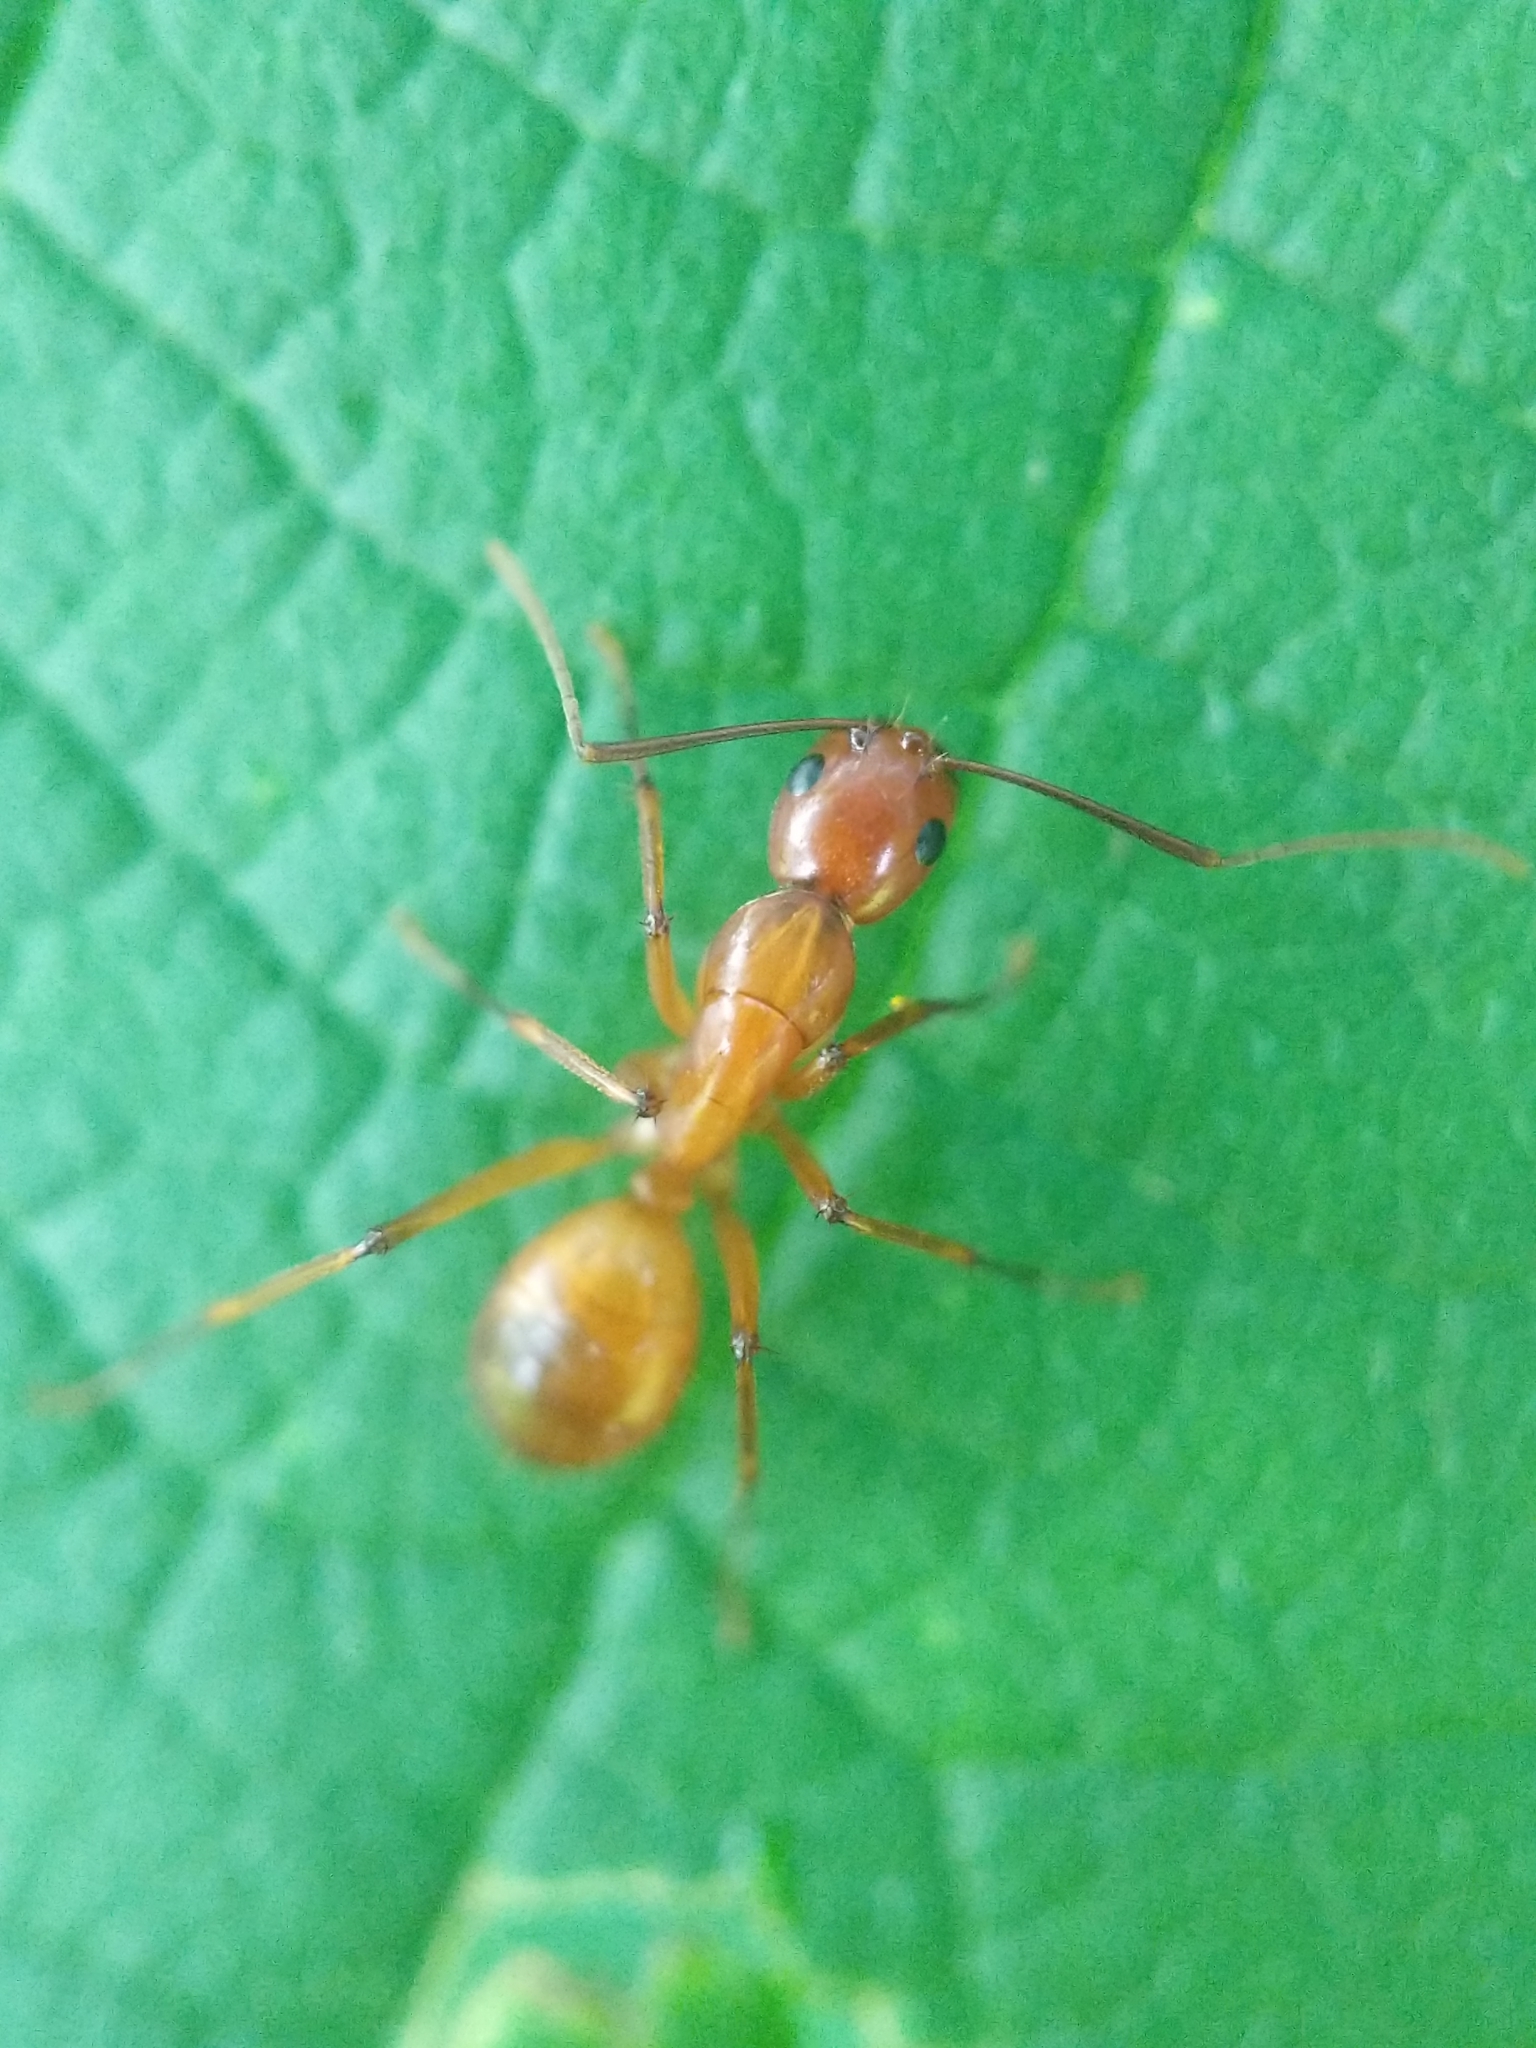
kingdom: Animalia
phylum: Arthropoda
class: Insecta
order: Hymenoptera
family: Formicidae
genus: Camponotus
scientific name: Camponotus castaneus
